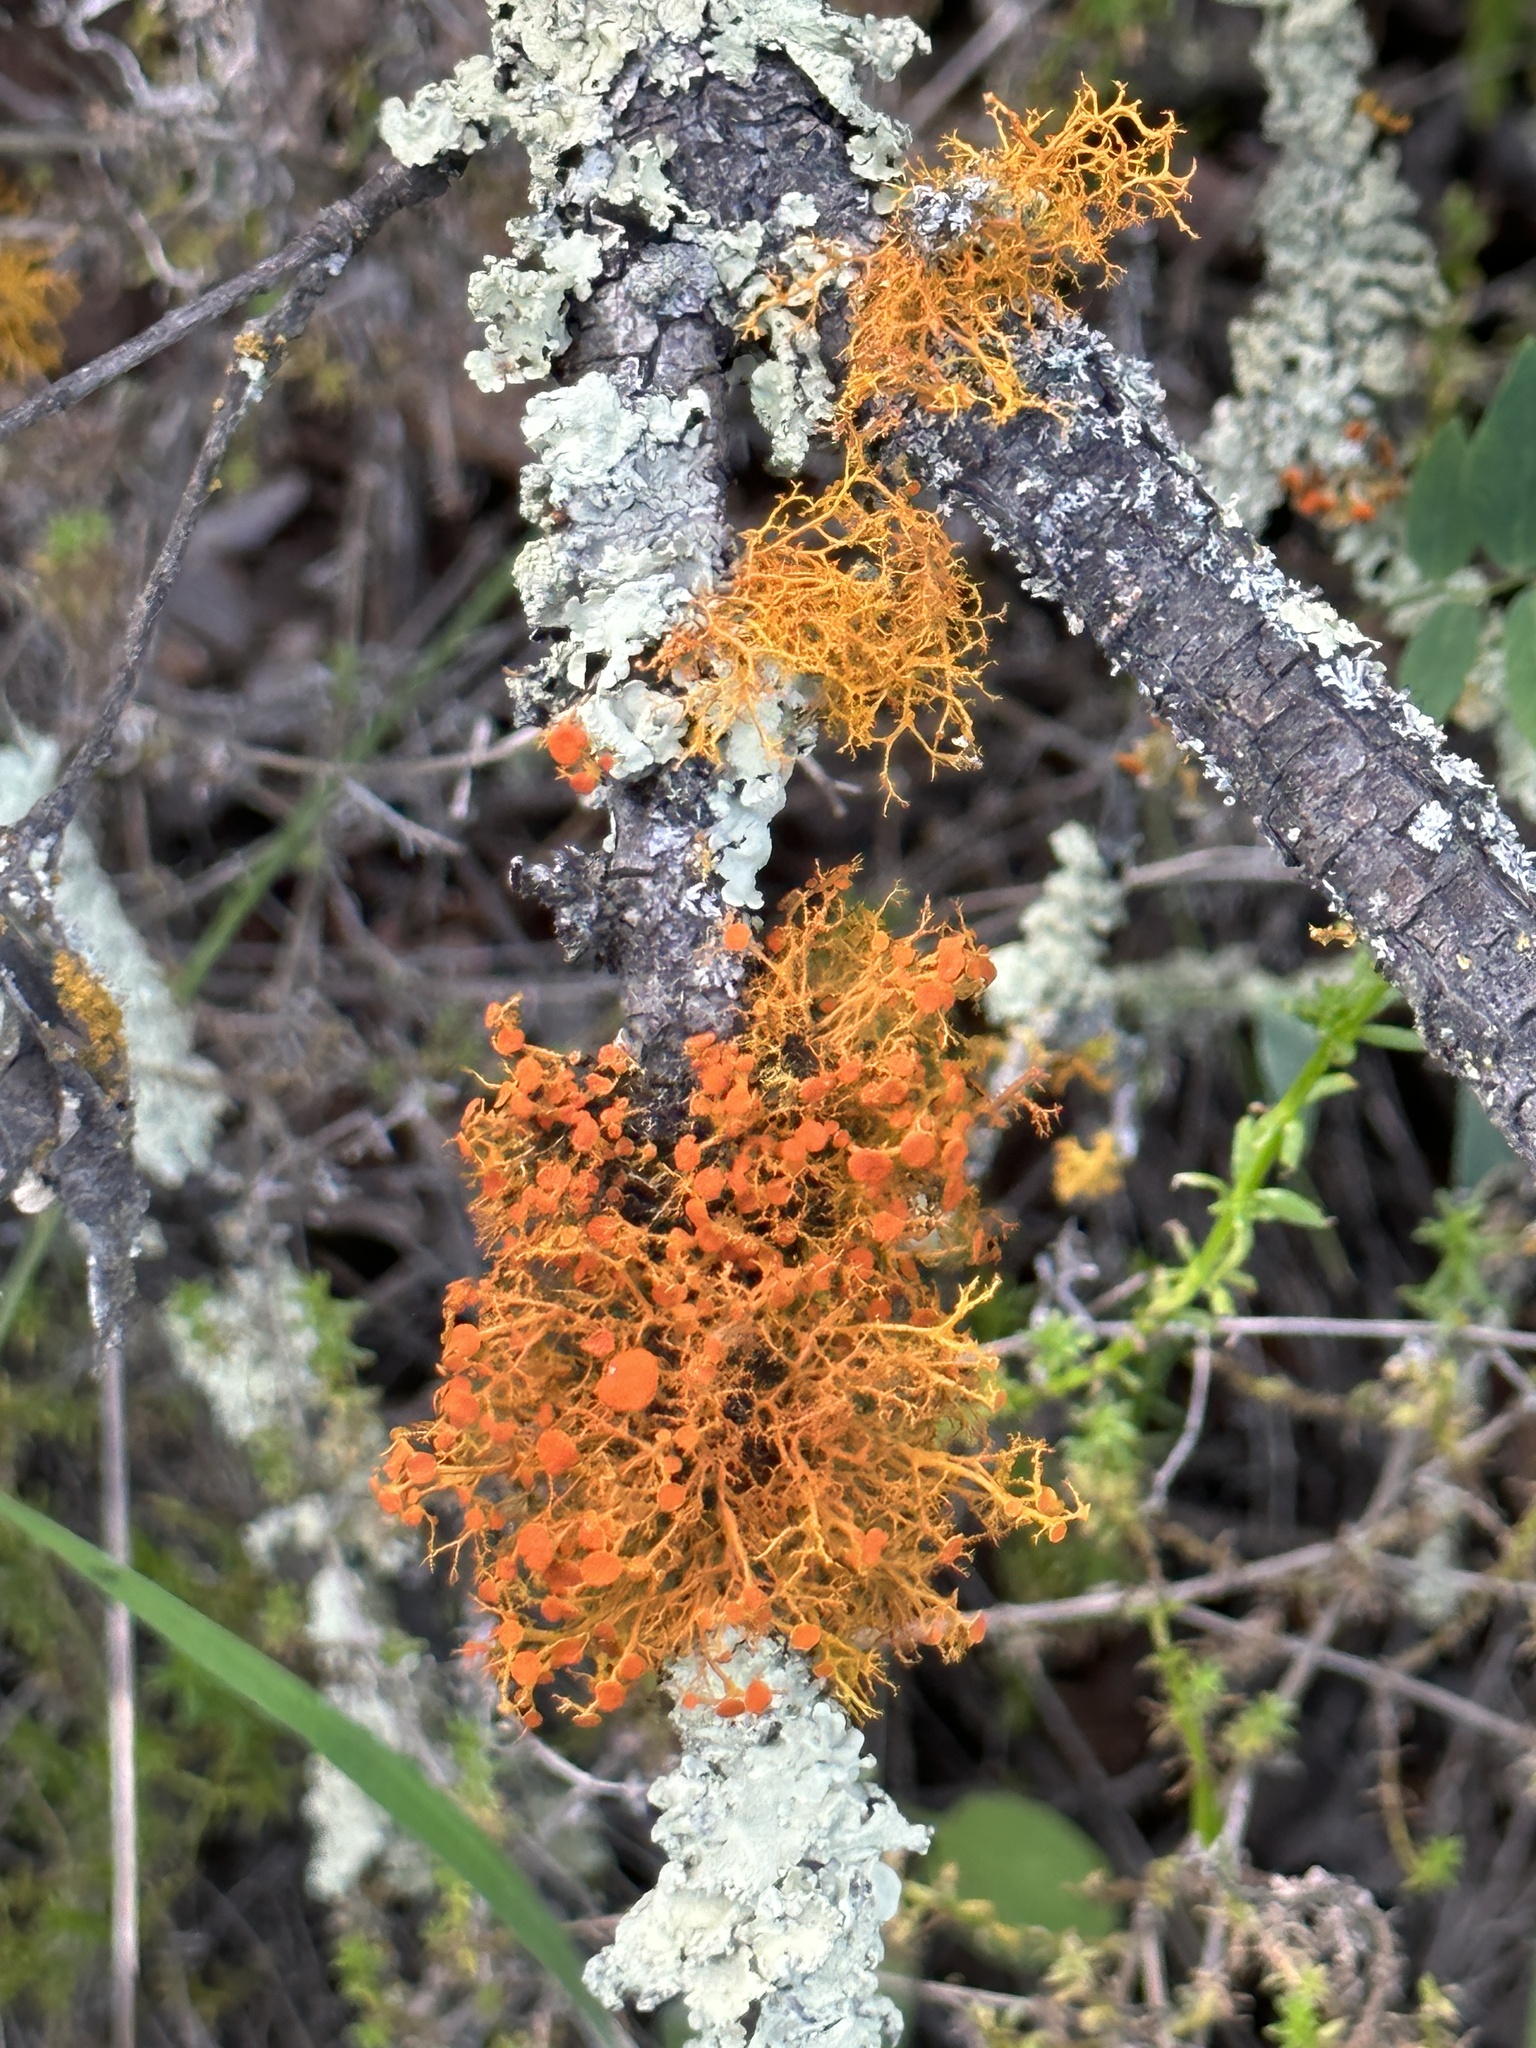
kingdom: Fungi
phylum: Ascomycota
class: Lecanoromycetes
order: Teloschistales
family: Teloschistaceae
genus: Teloschistes
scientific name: Teloschistes flavicans
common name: Golden hair-lichen
